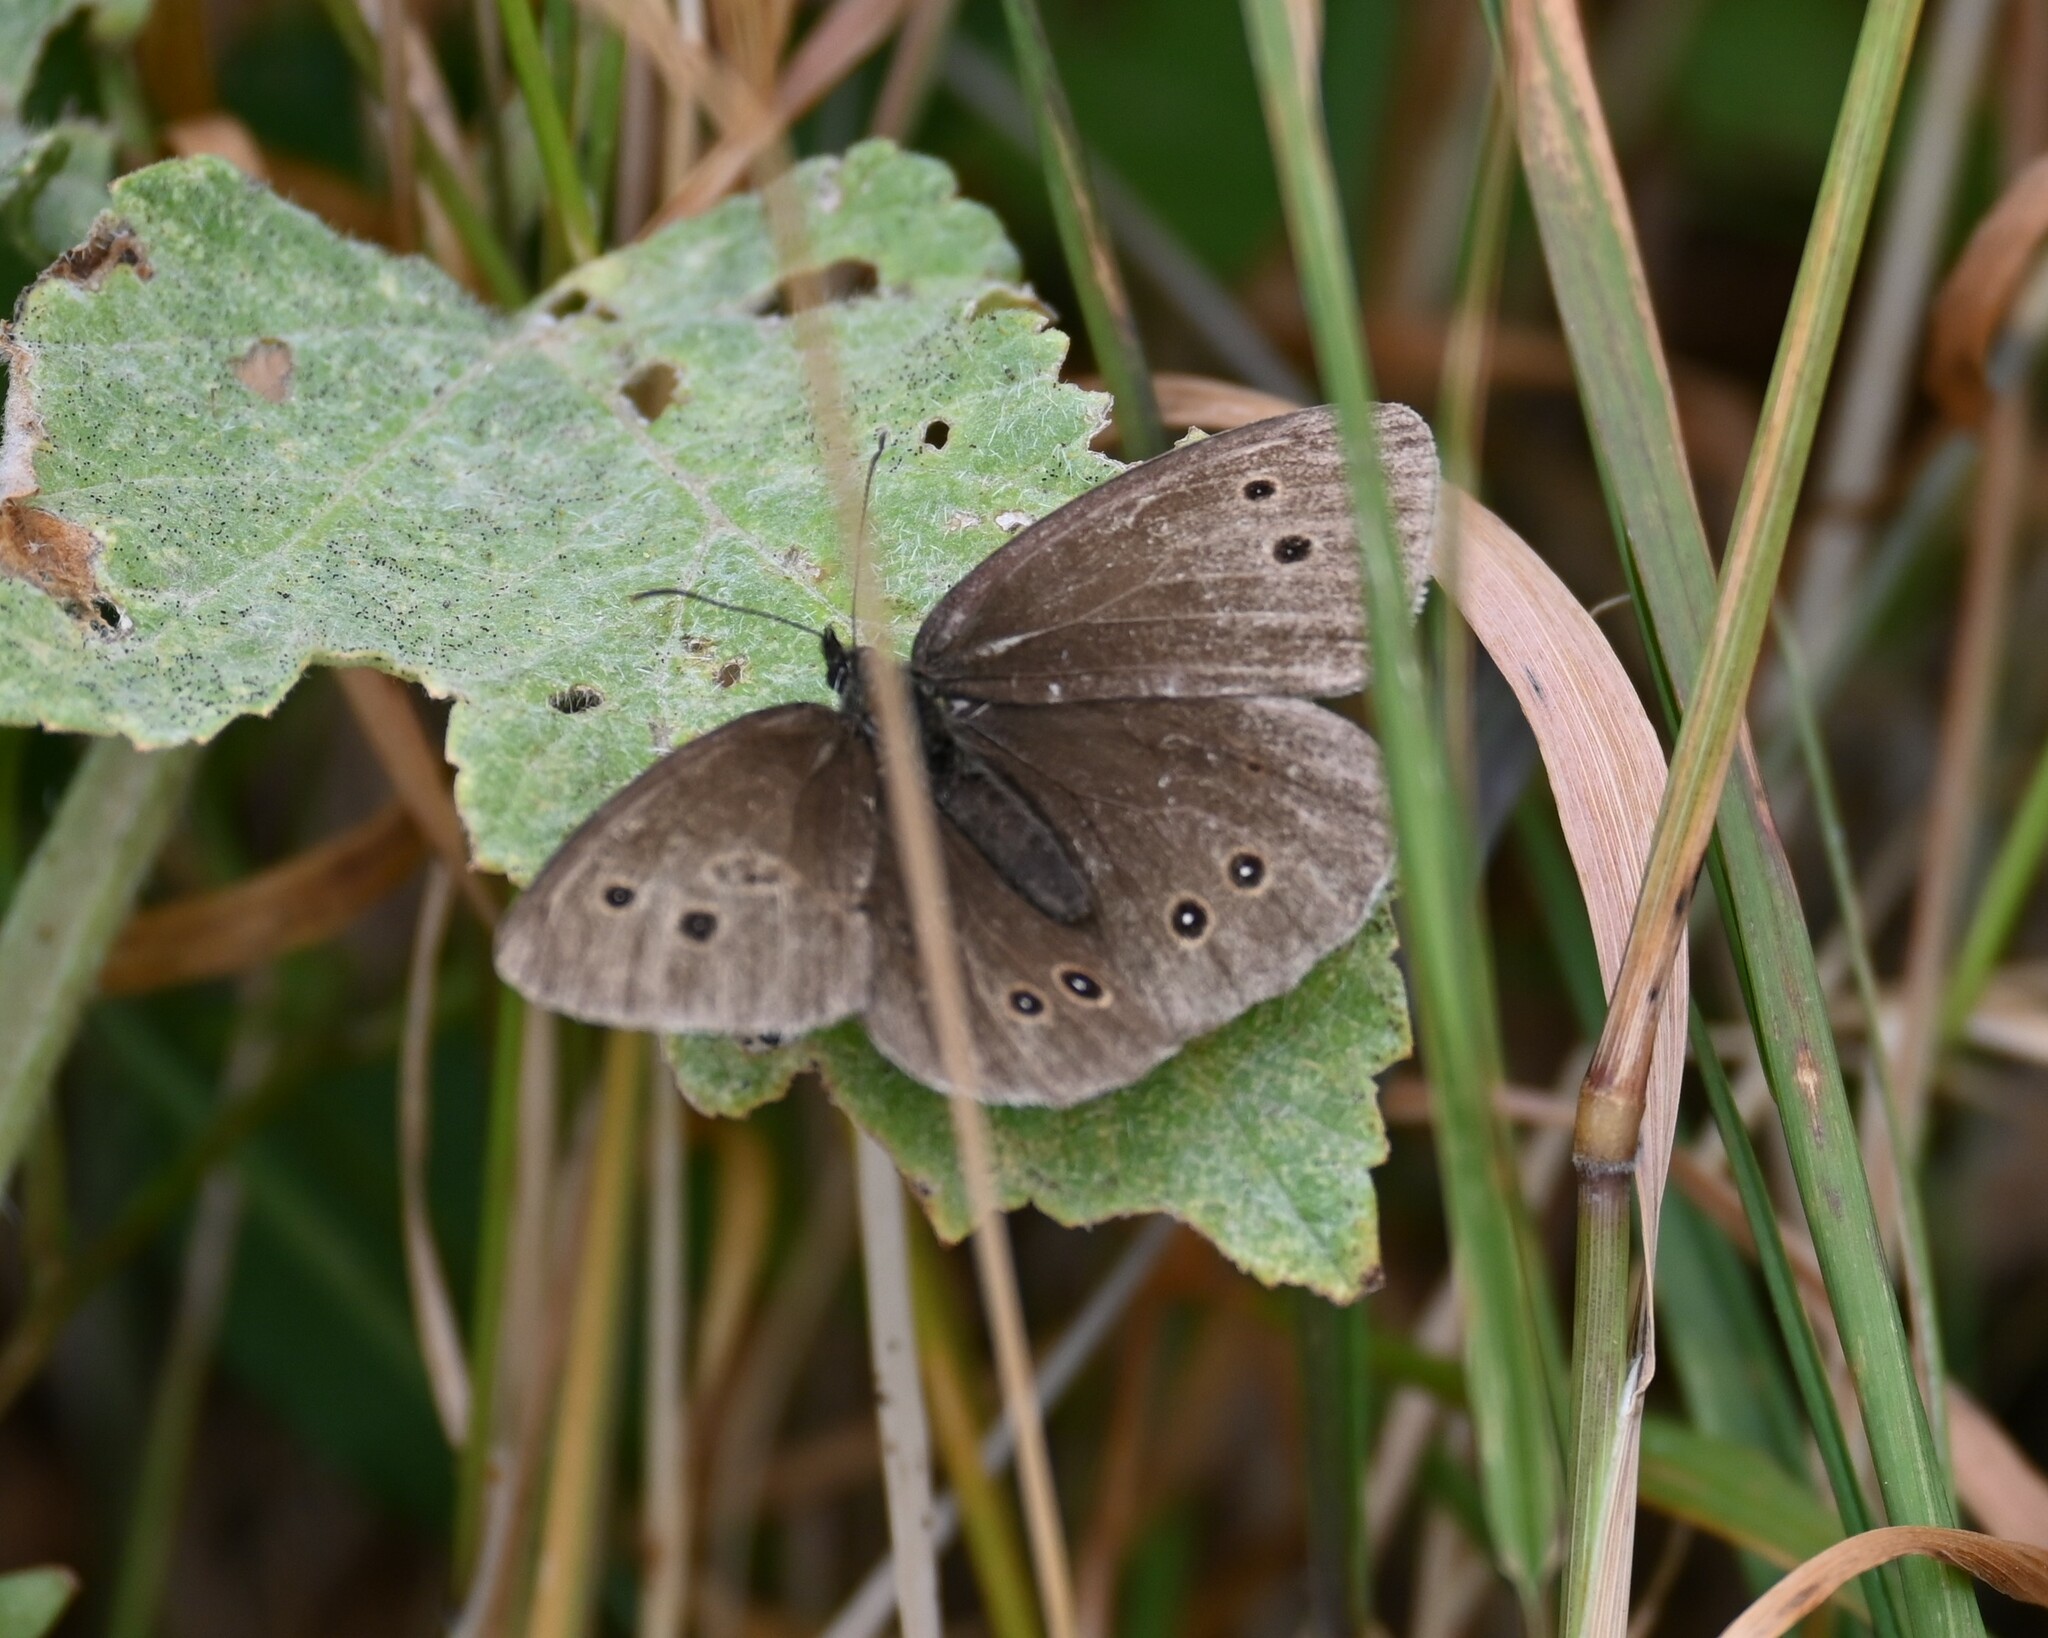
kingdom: Animalia
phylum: Arthropoda
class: Insecta
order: Lepidoptera
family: Nymphalidae
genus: Aphantopus
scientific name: Aphantopus hyperantus
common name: Ringlet
